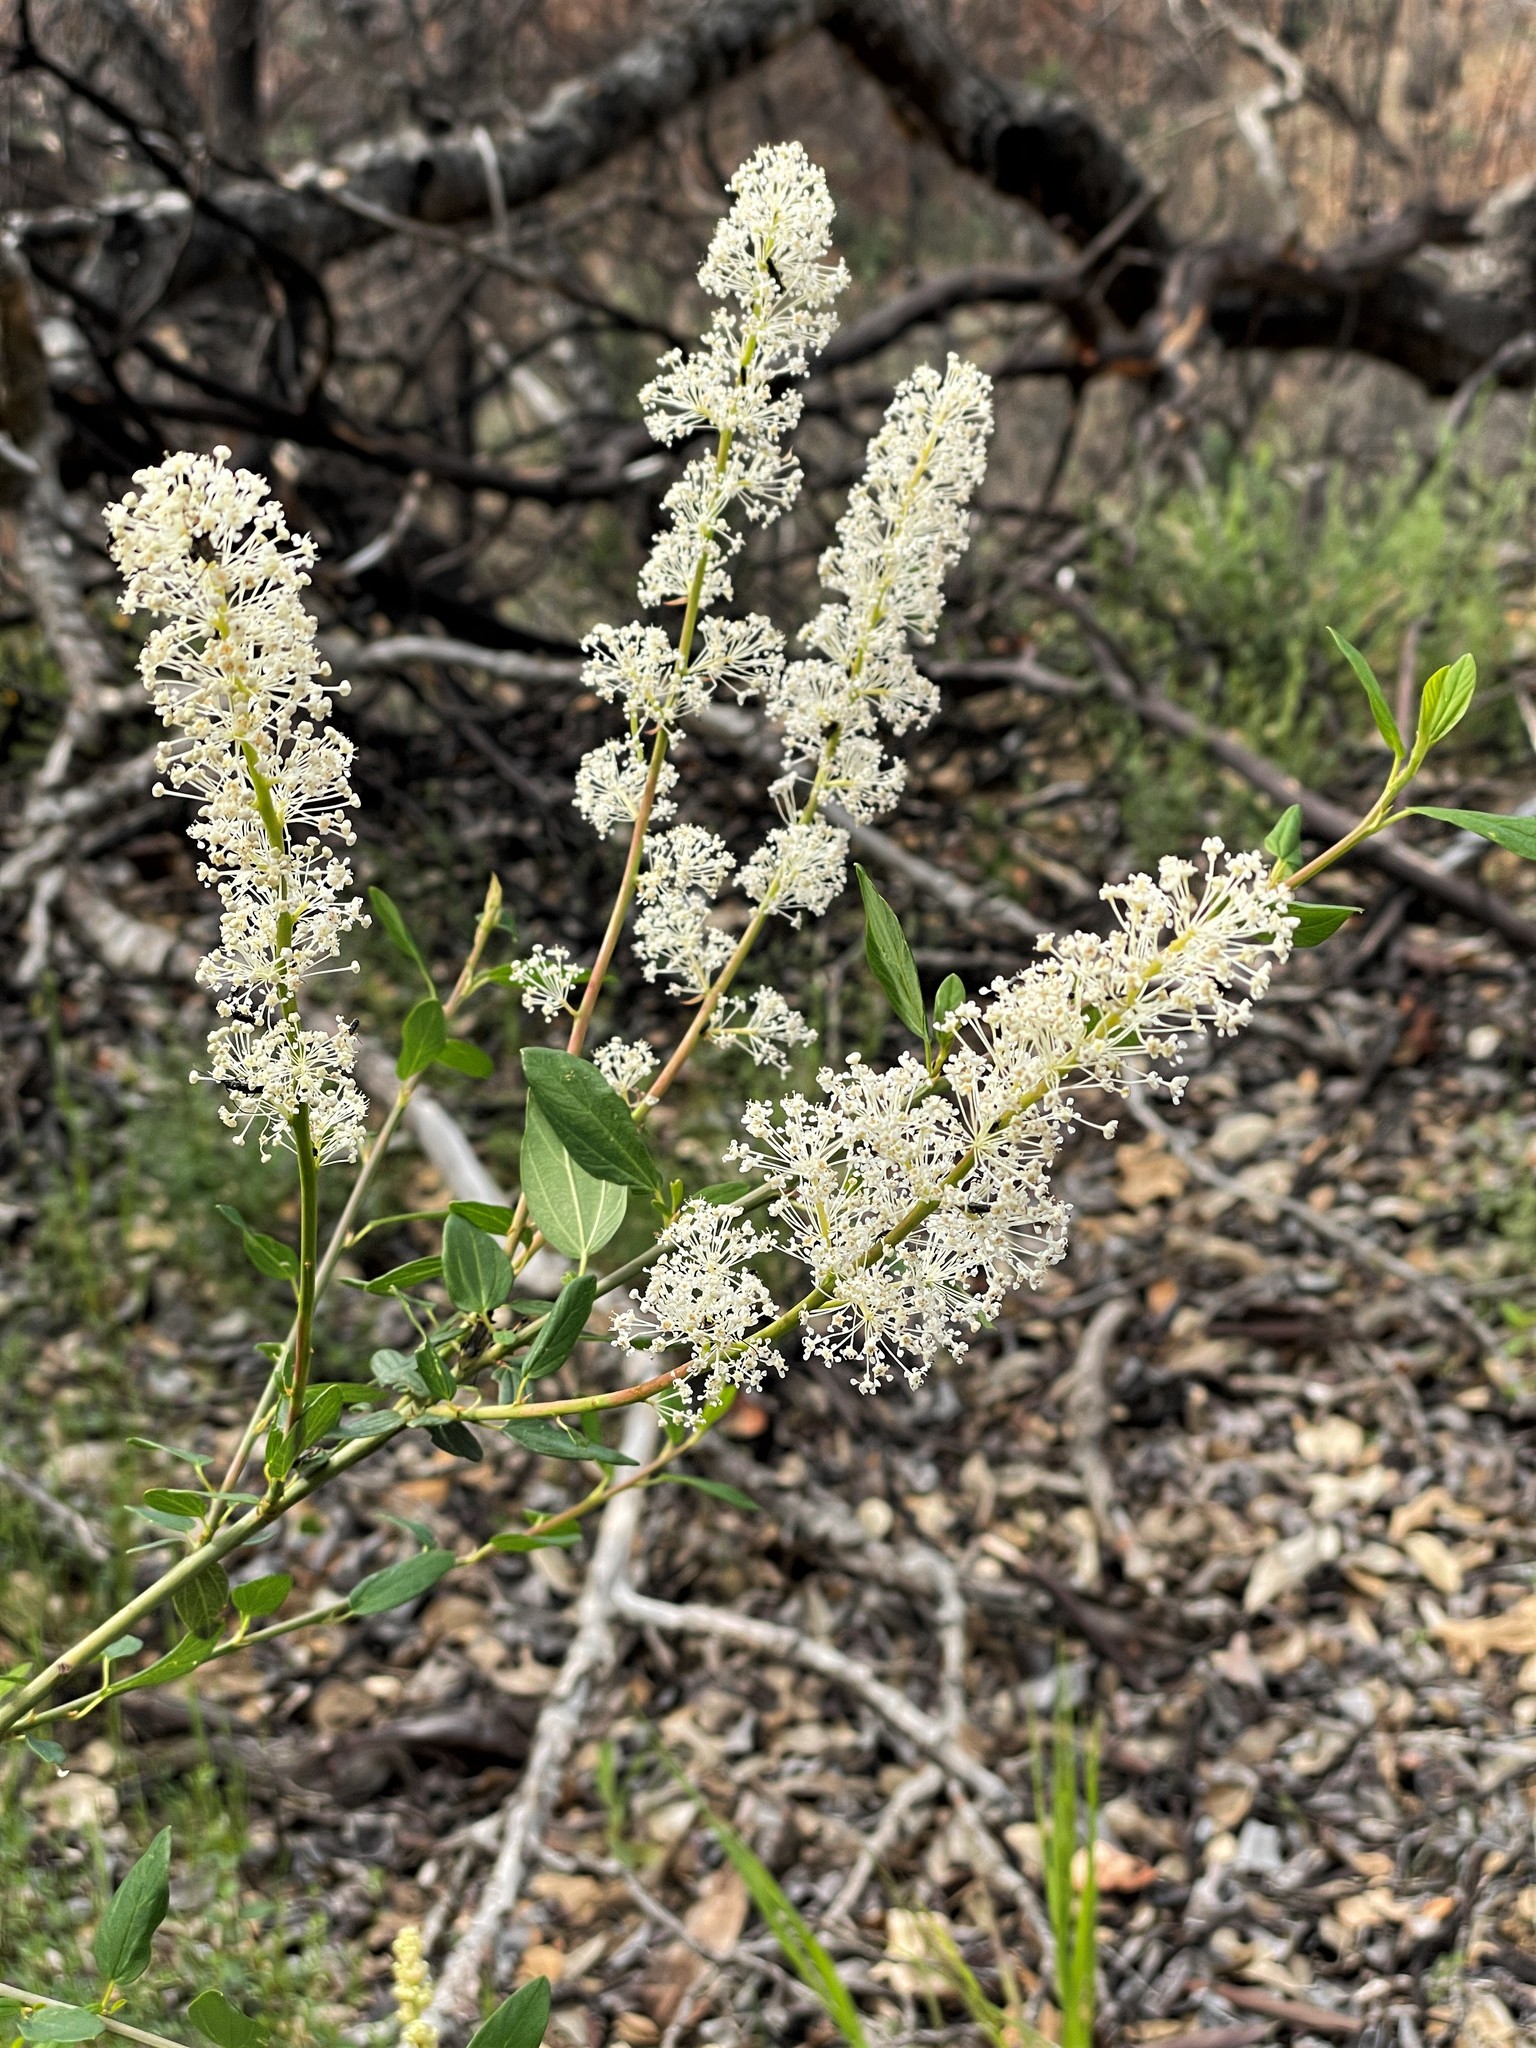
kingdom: Plantae
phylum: Tracheophyta
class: Magnoliopsida
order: Rosales
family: Rhamnaceae
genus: Ceanothus
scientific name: Ceanothus integerrimus
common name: Deerbrush ceanothus
